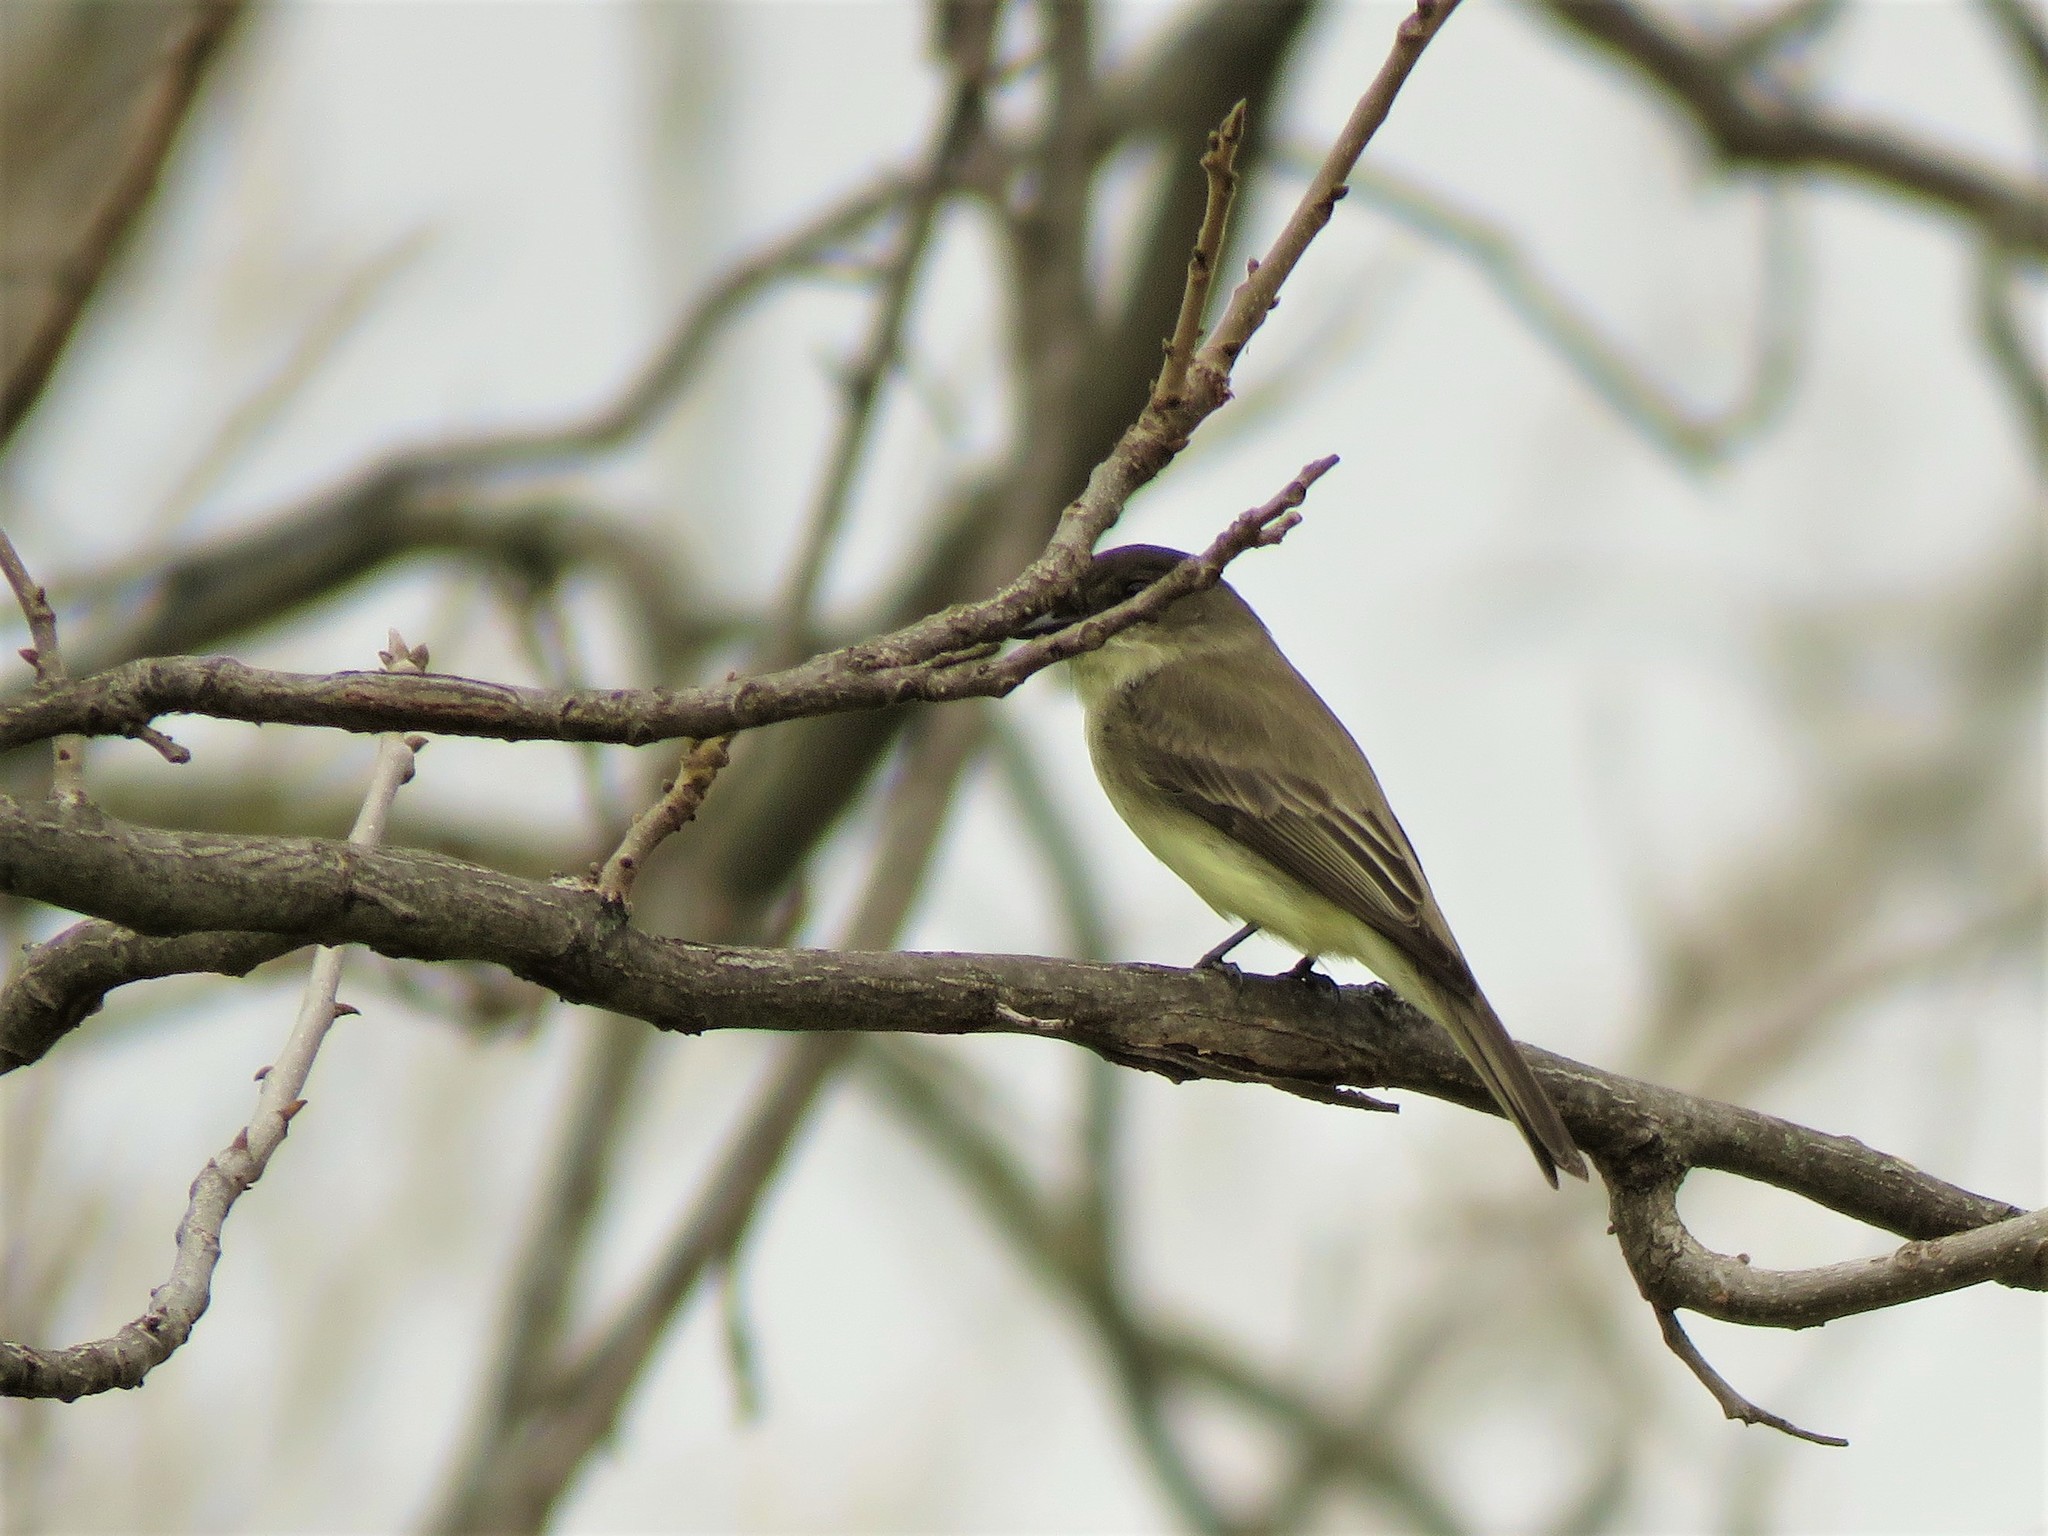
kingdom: Animalia
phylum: Chordata
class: Aves
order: Passeriformes
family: Tyrannidae
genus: Sayornis
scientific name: Sayornis phoebe
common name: Eastern phoebe
